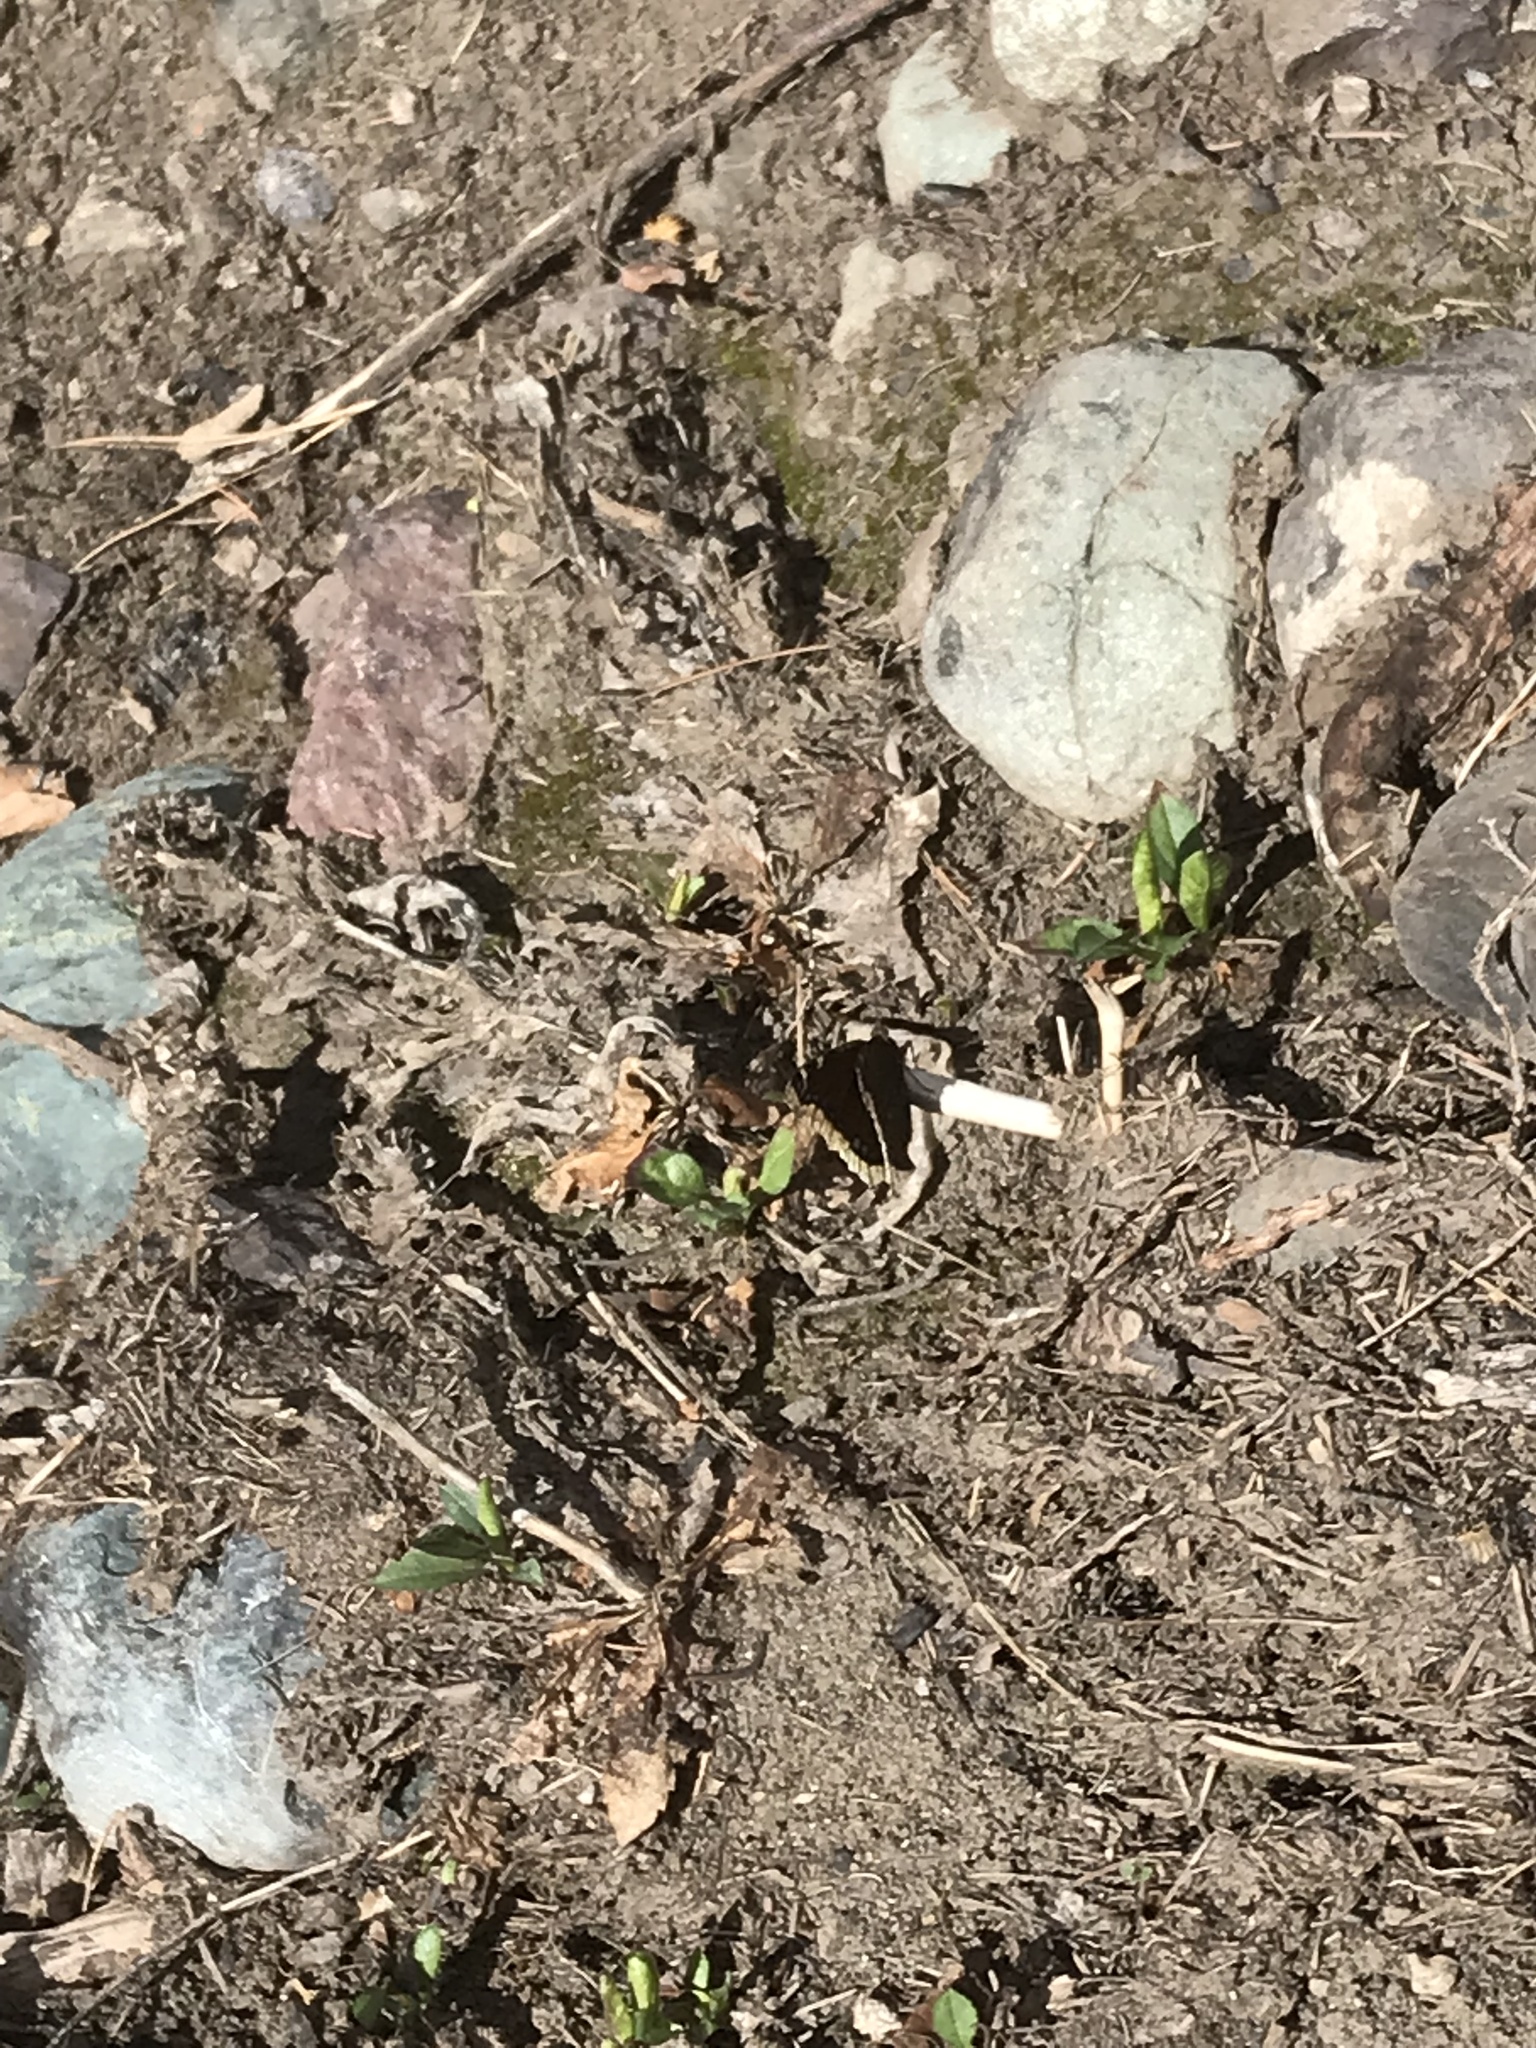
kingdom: Animalia
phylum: Arthropoda
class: Insecta
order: Lepidoptera
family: Nymphalidae
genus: Nymphalis
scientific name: Nymphalis antiopa
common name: Camberwell beauty
